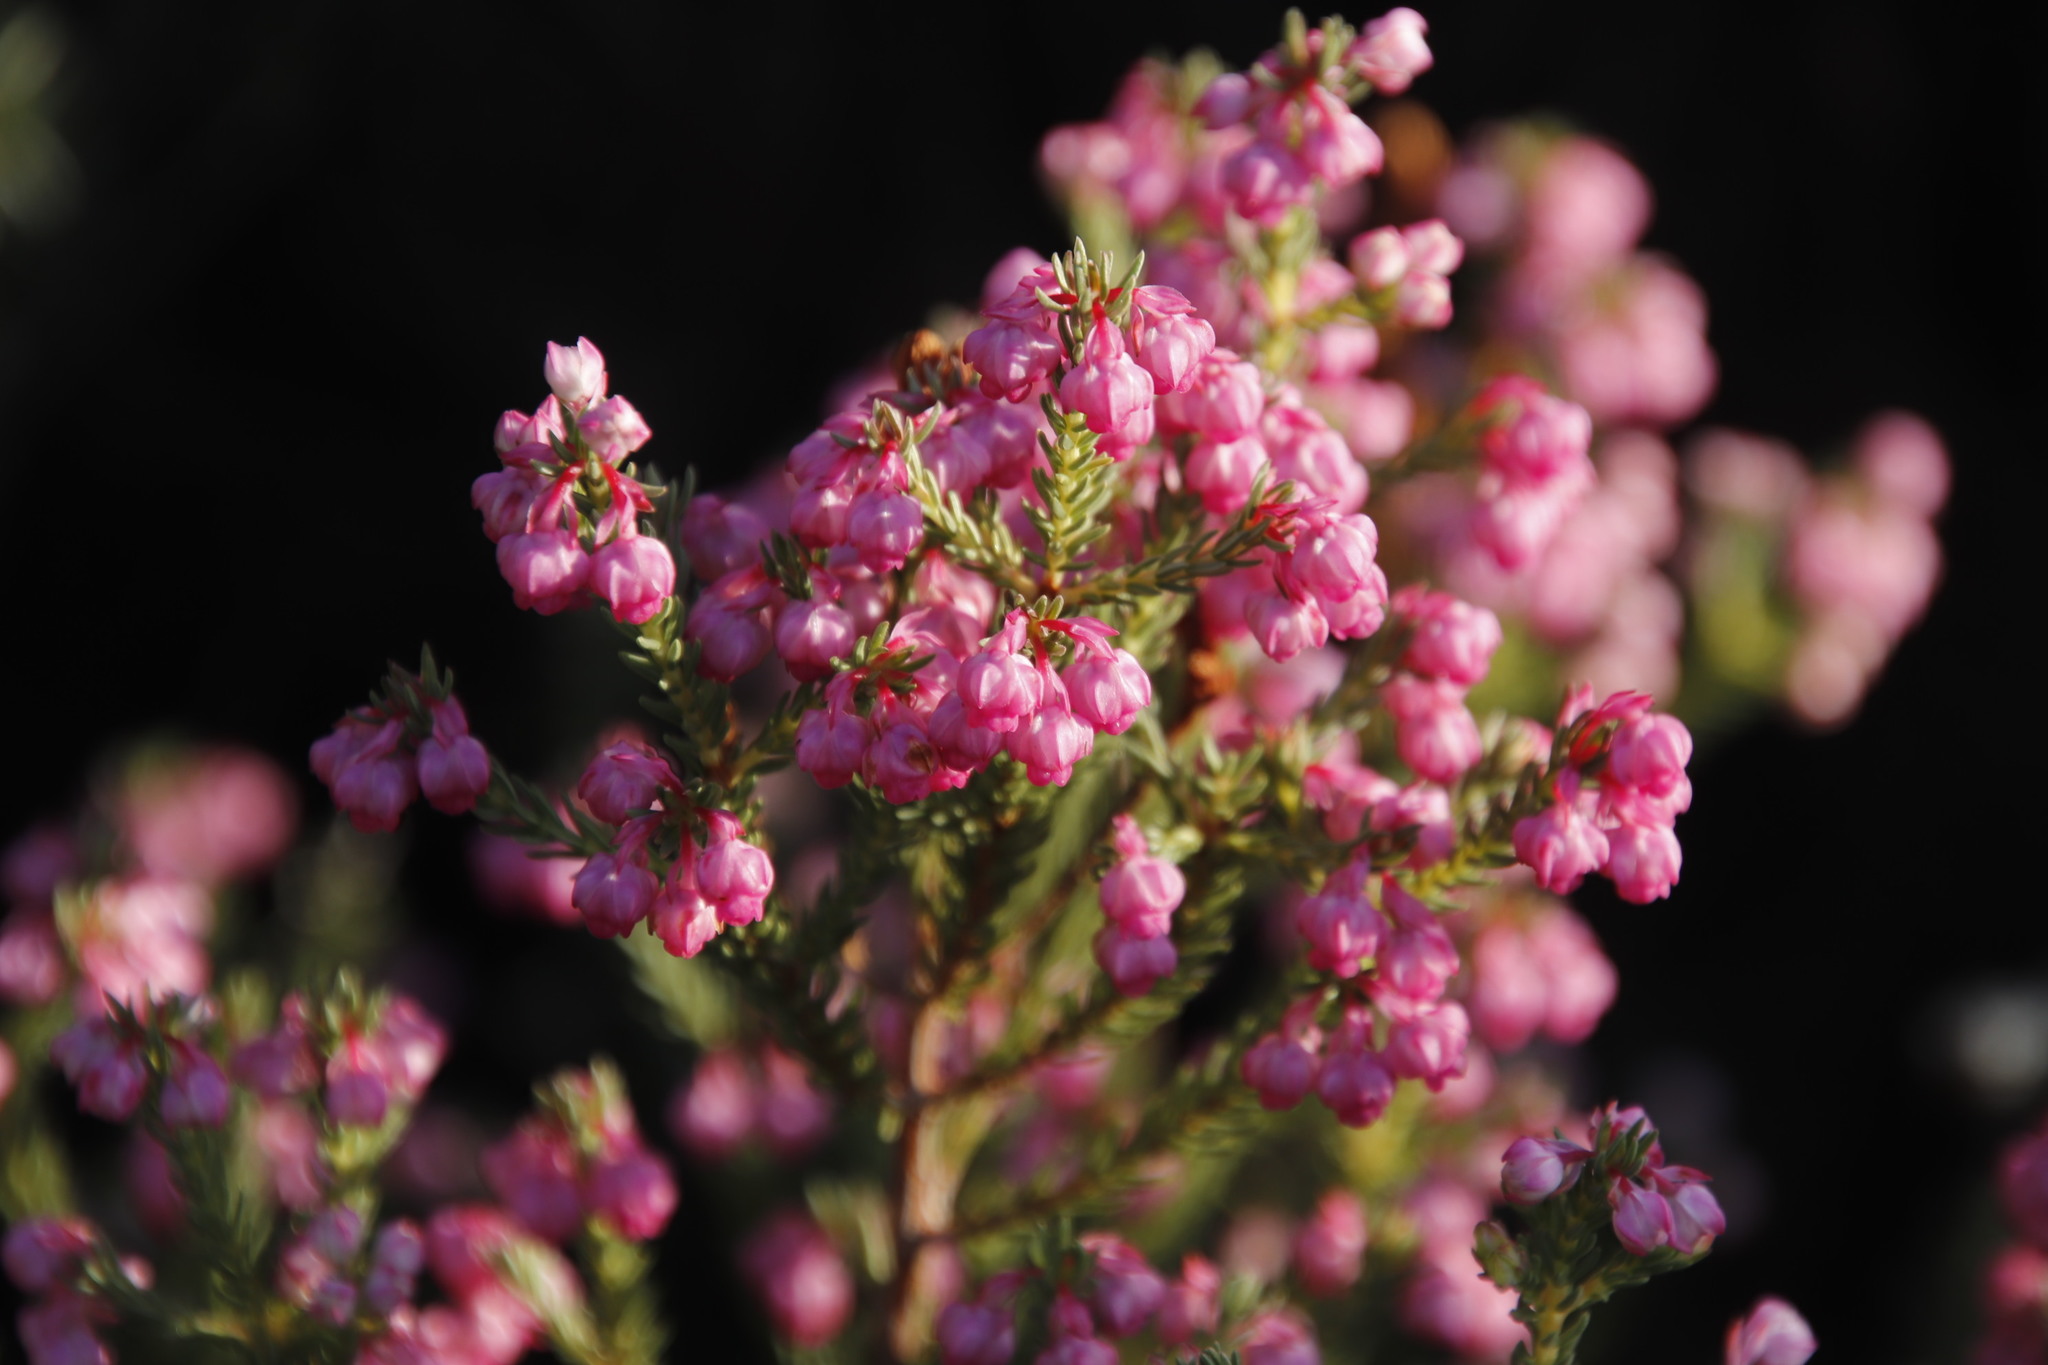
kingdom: Plantae
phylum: Tracheophyta
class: Magnoliopsida
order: Ericales
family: Ericaceae
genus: Erica
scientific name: Erica baccans
